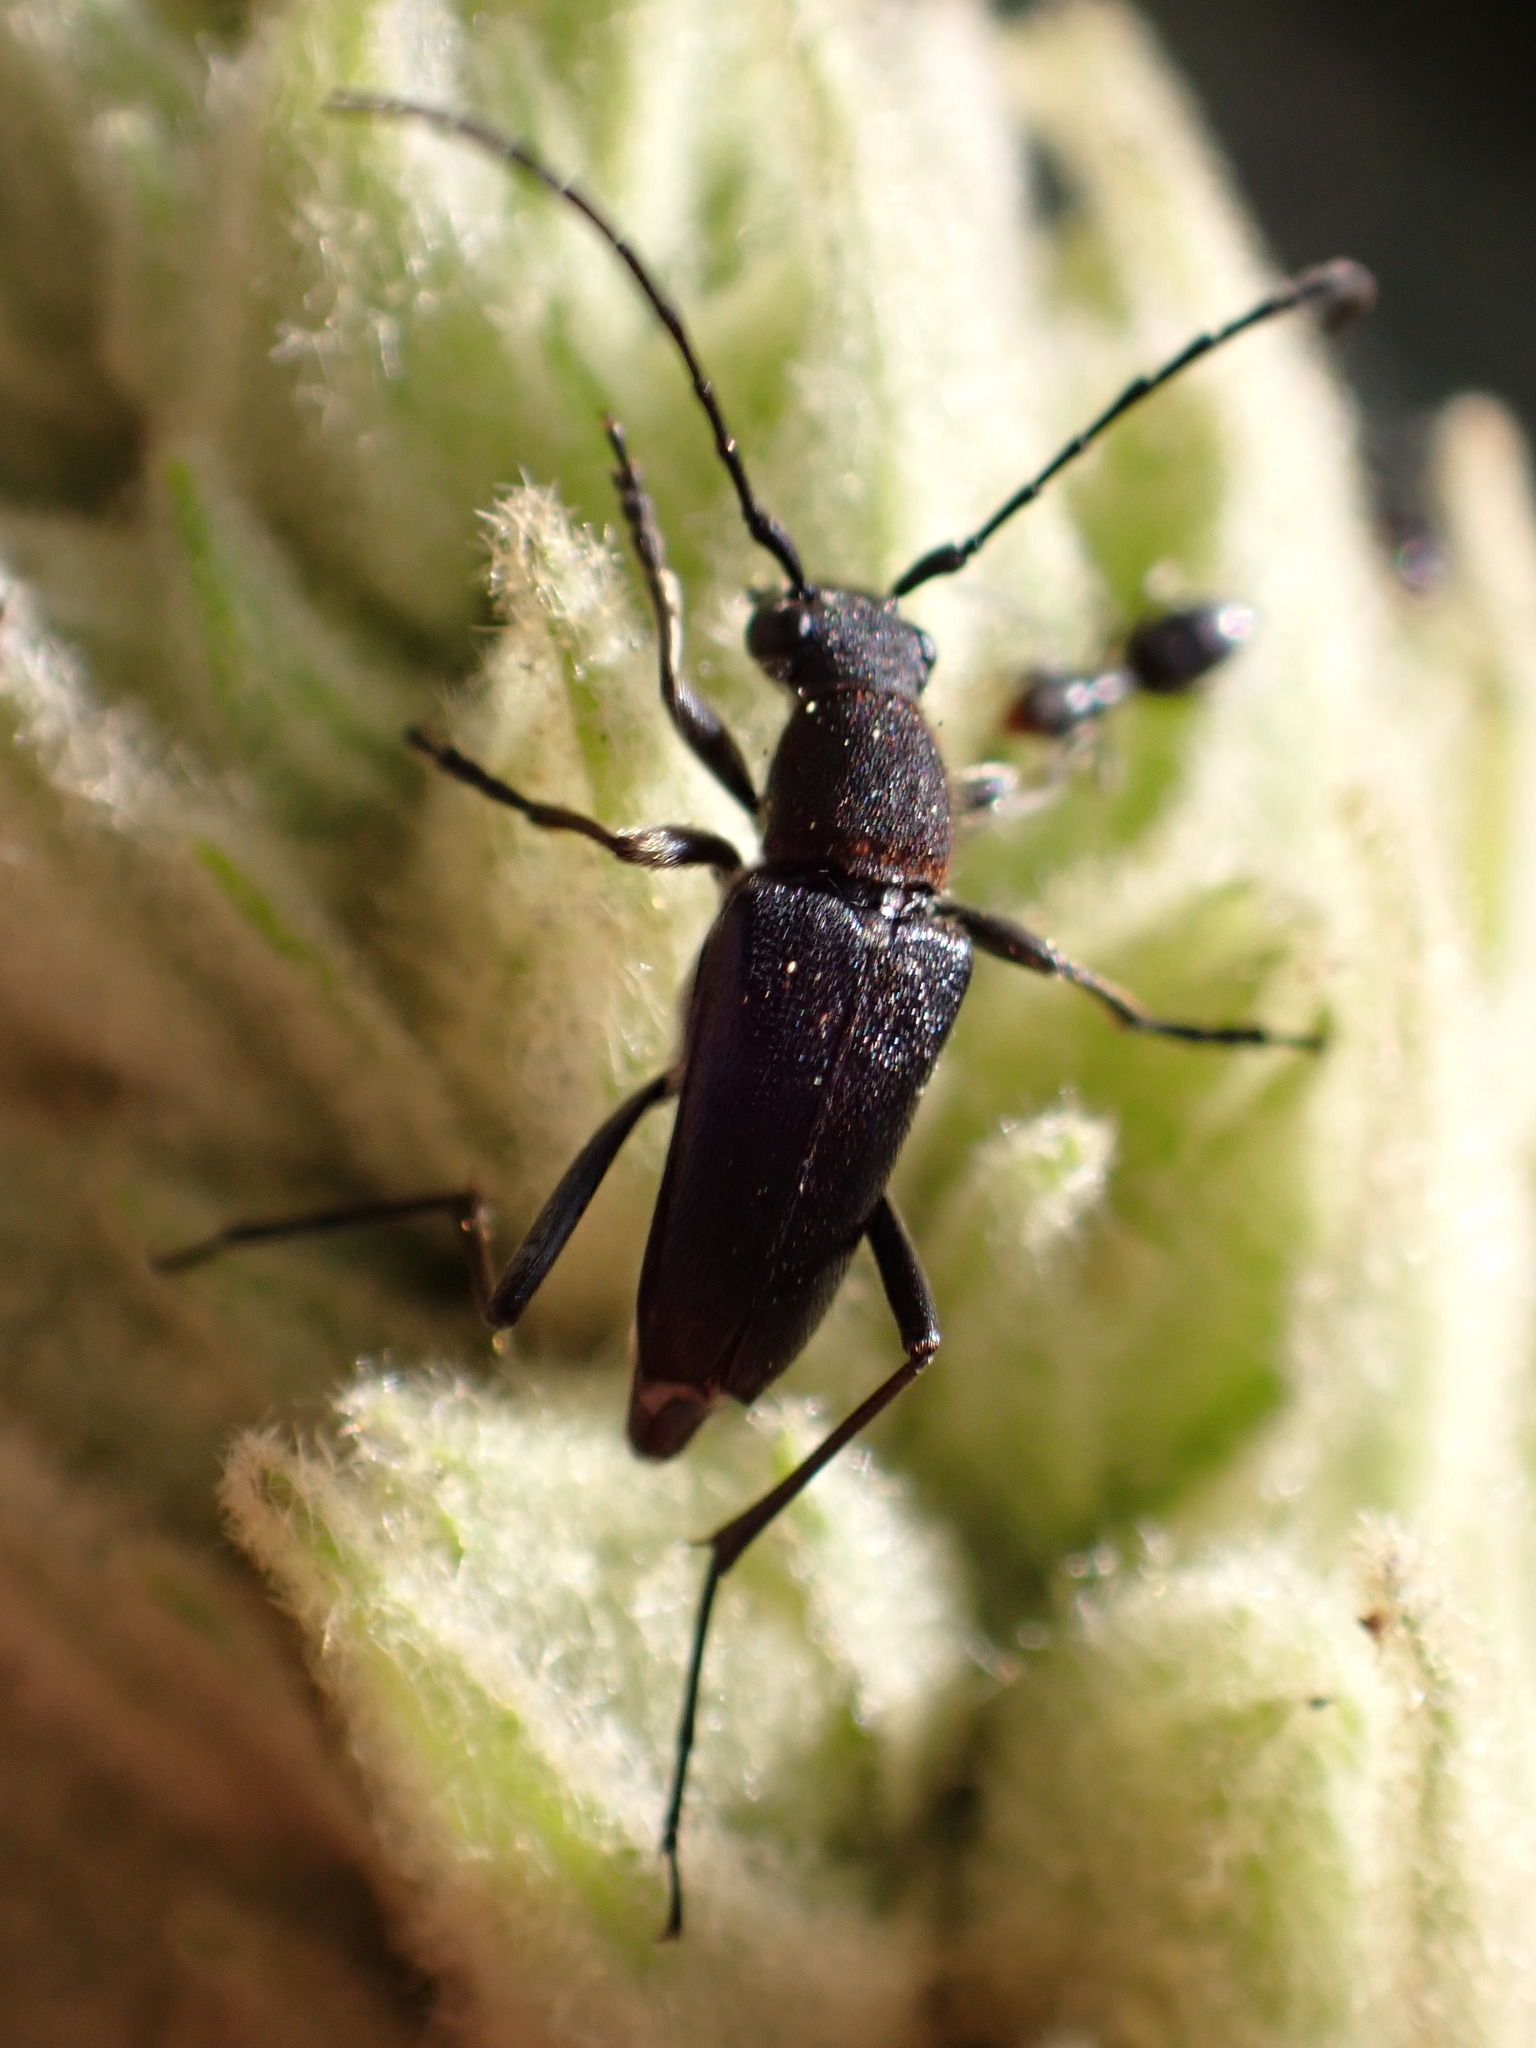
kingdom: Animalia
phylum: Arthropoda
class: Insecta
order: Coleoptera
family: Cerambycidae
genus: Anastrangalia
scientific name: Anastrangalia laetifica
